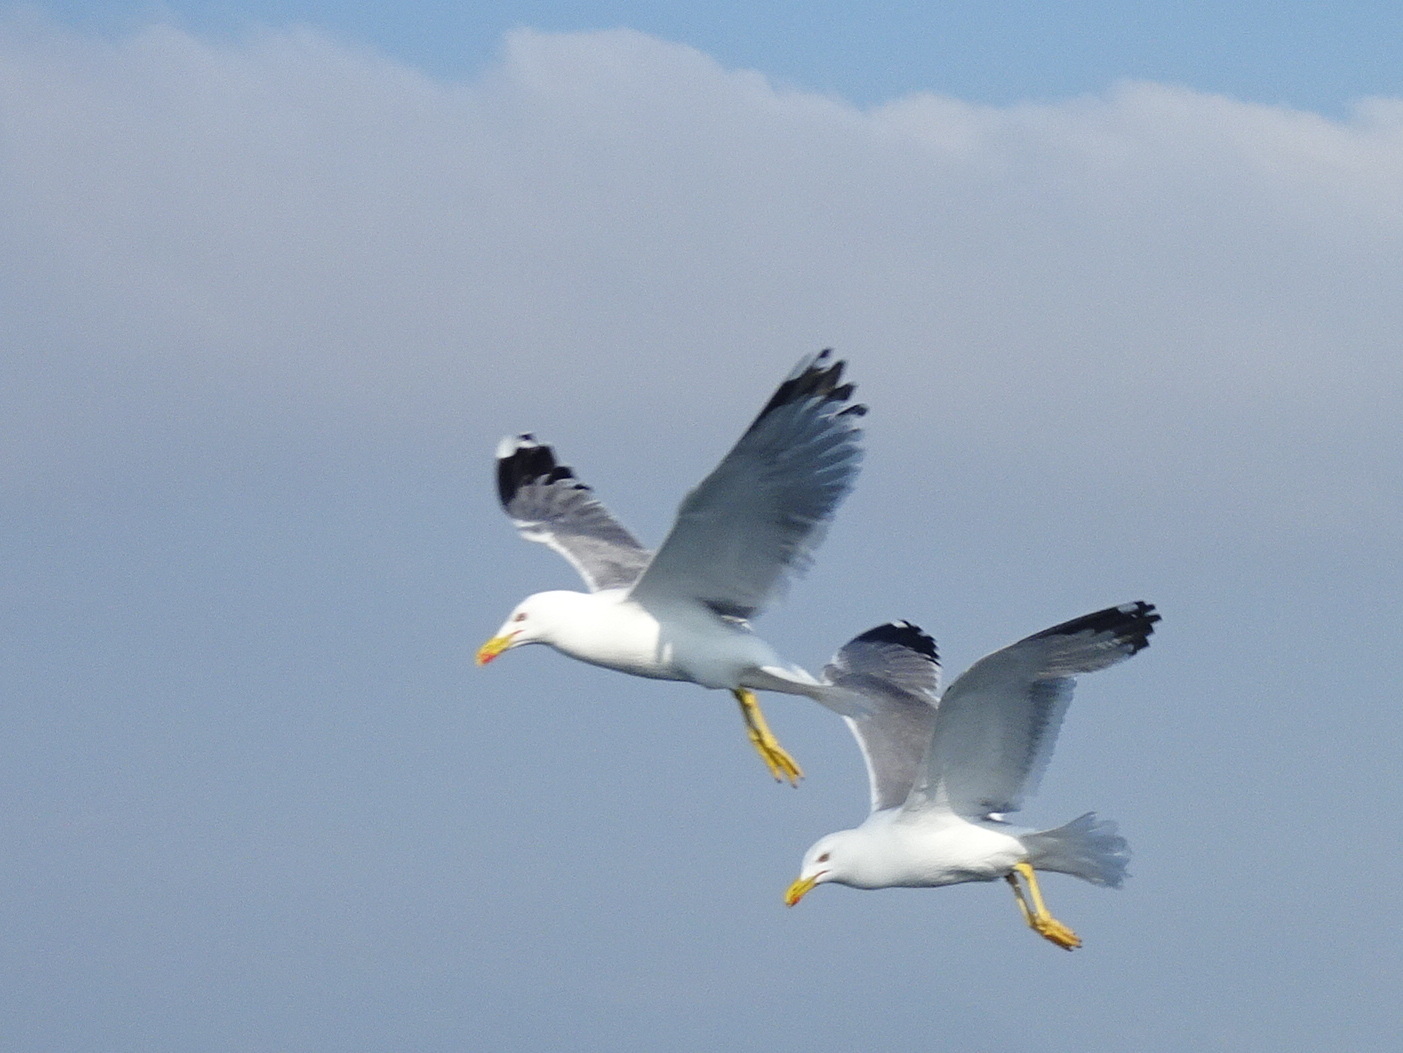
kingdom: Animalia
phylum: Chordata
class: Aves
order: Charadriiformes
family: Laridae
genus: Larus
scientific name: Larus michahellis
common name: Yellow-legged gull
